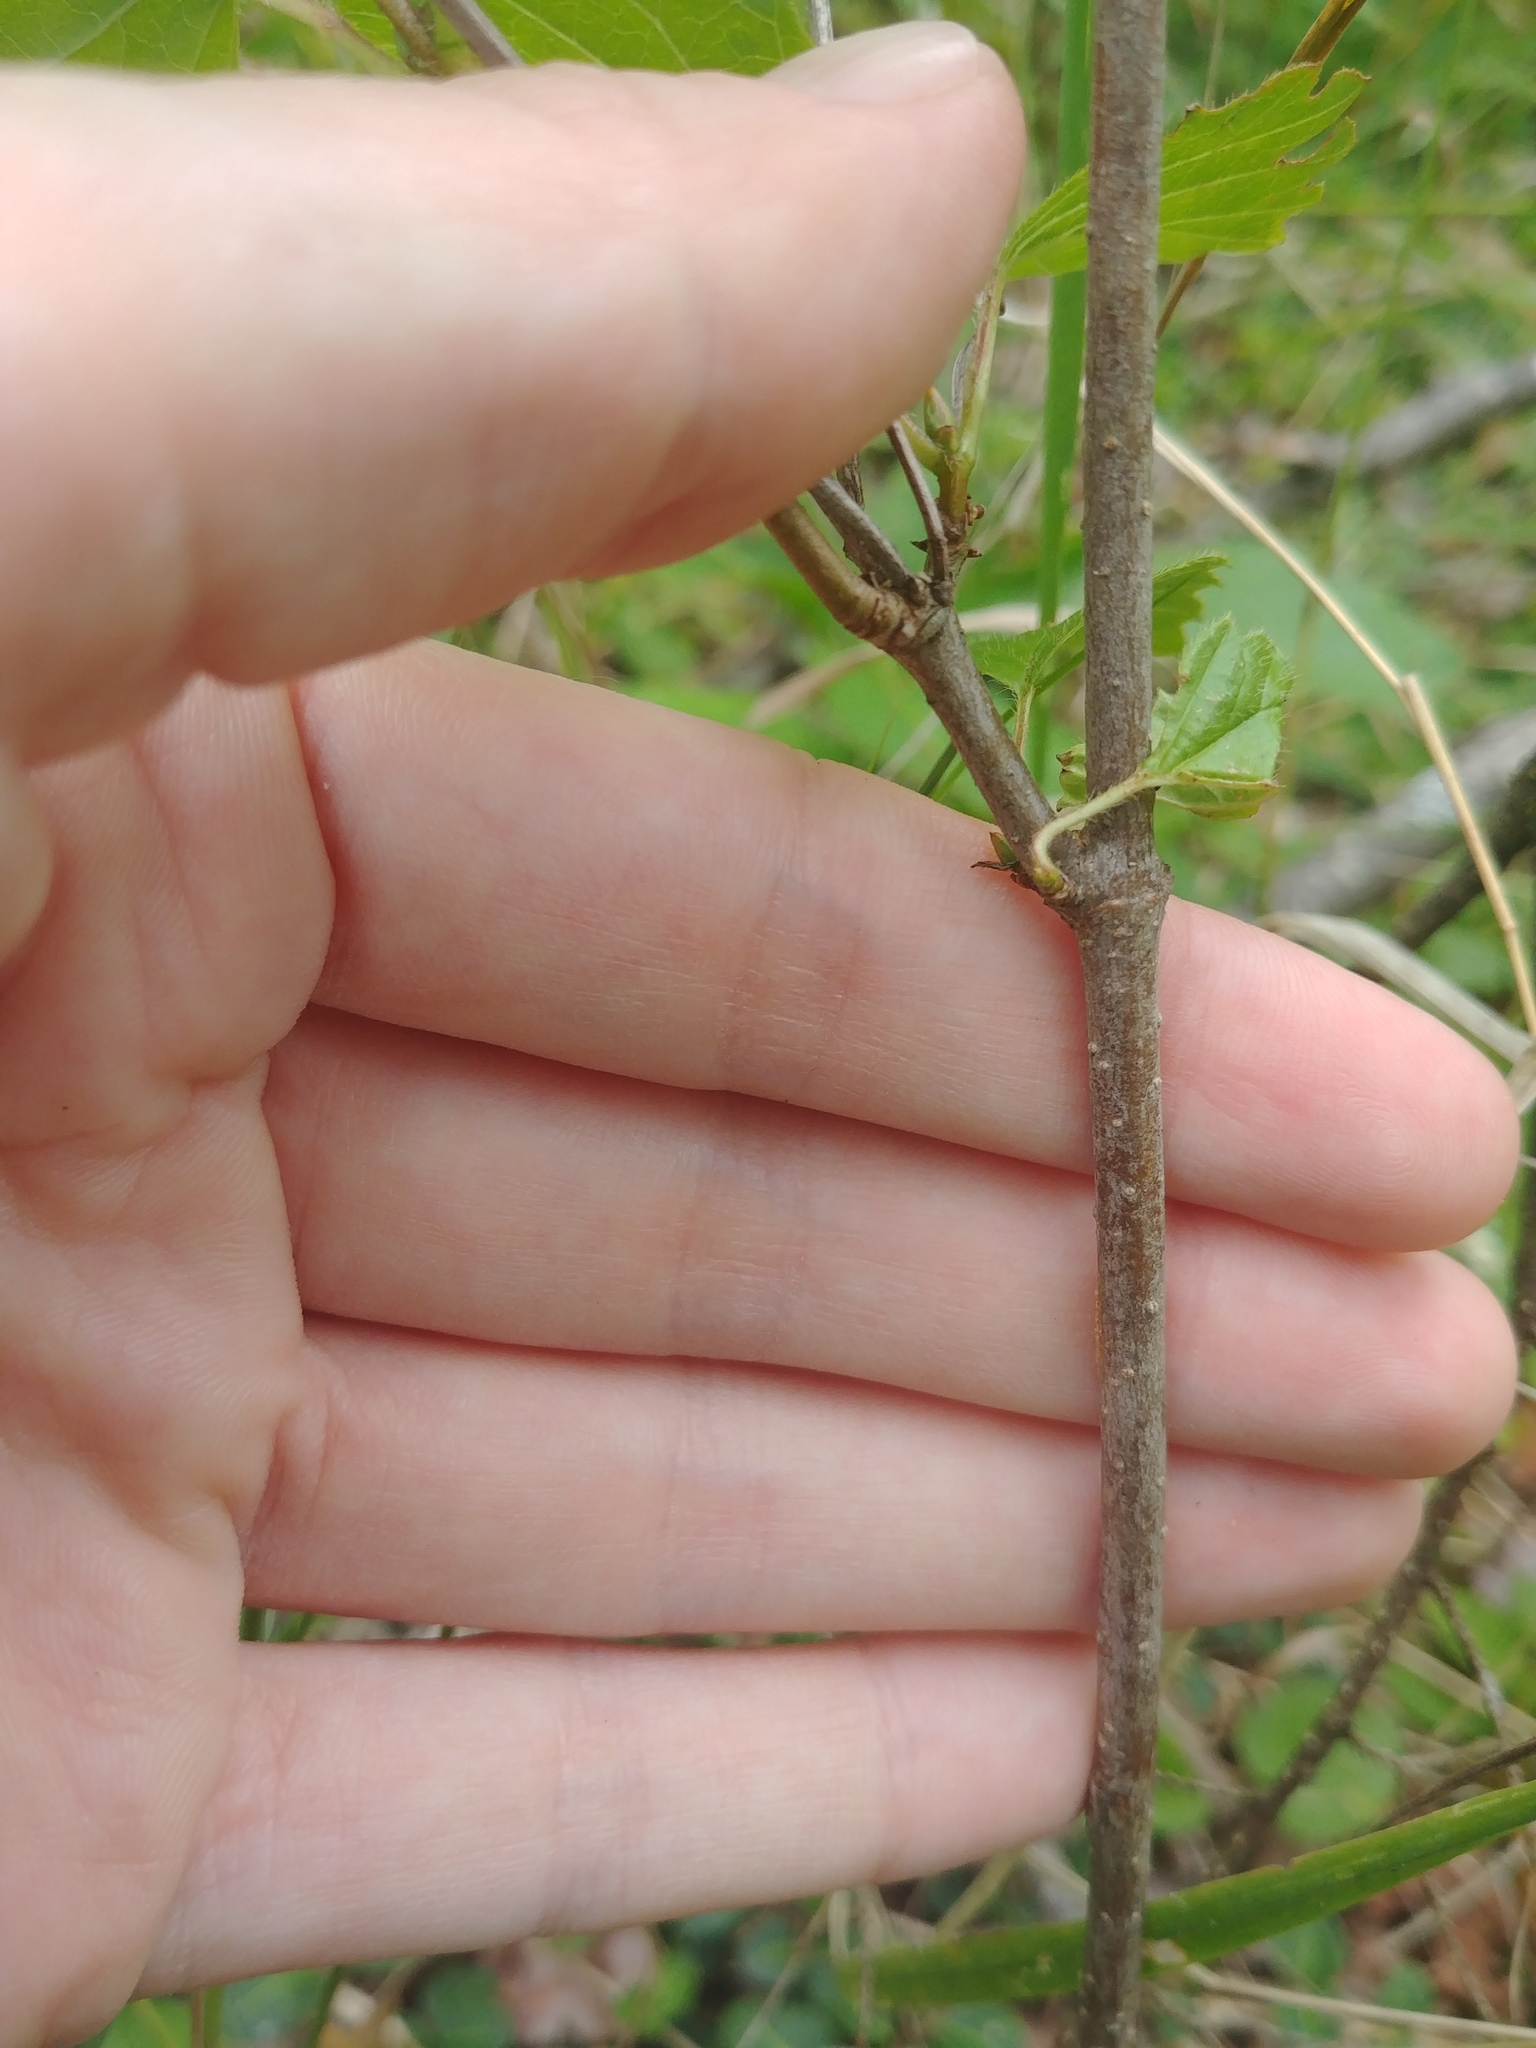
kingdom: Plantae
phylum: Tracheophyta
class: Magnoliopsida
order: Dipsacales
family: Viburnaceae
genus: Viburnum
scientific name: Viburnum dentatum
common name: Arrow-wood
